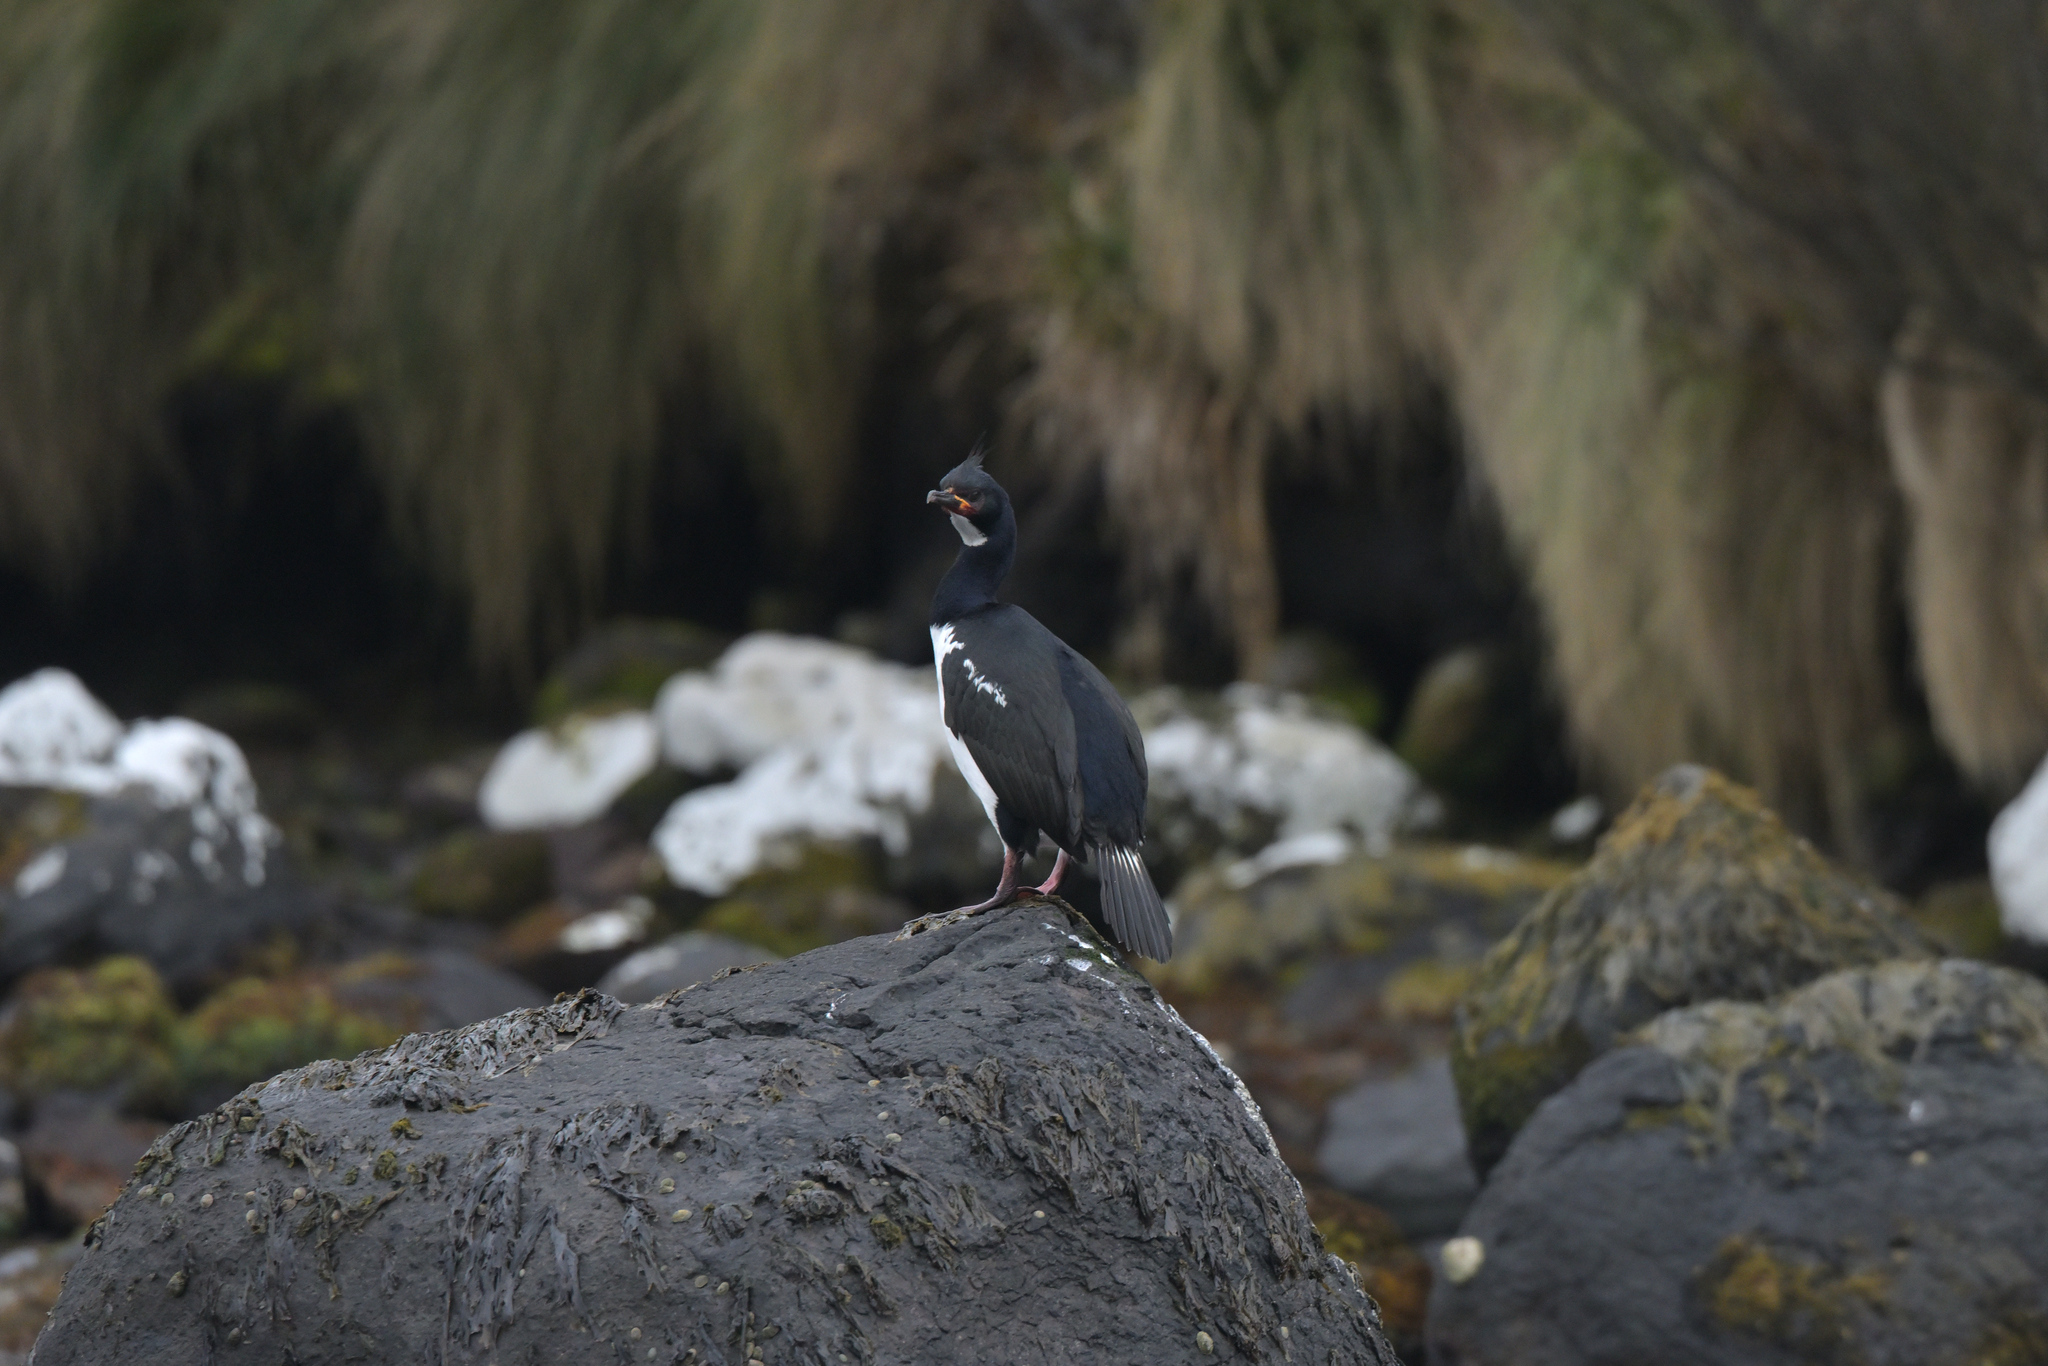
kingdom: Animalia
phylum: Chordata
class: Aves
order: Suliformes
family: Phalacrocoracidae
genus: Leucocarbo
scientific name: Leucocarbo campbelli
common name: Campbell shag
